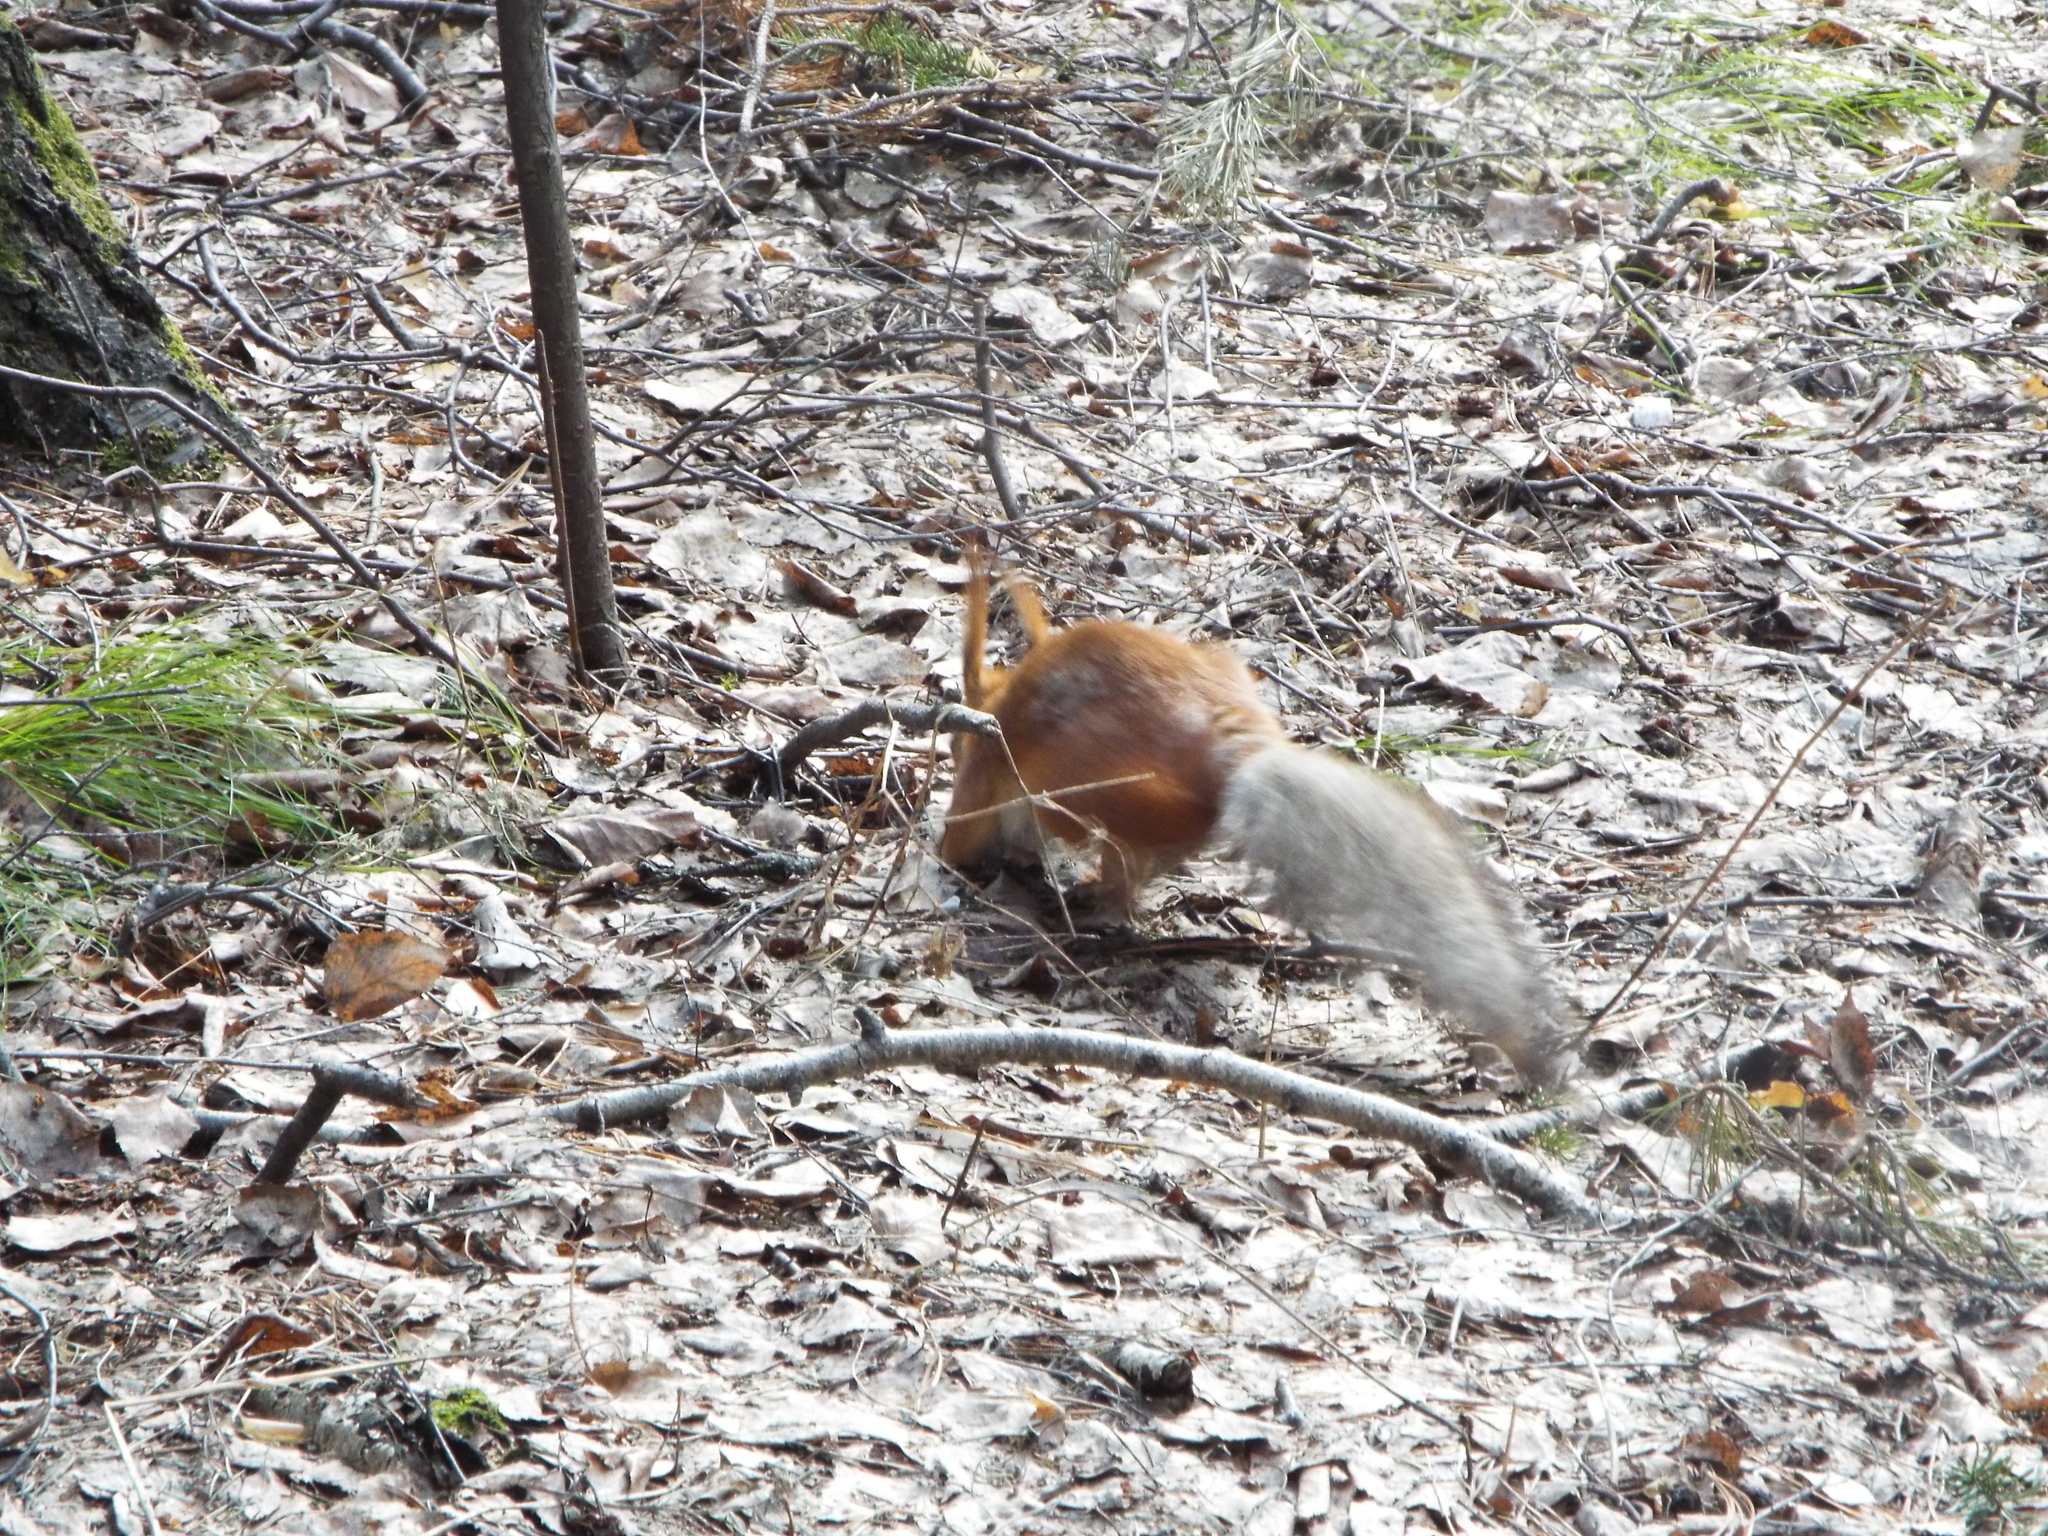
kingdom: Animalia
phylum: Chordata
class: Mammalia
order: Rodentia
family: Sciuridae
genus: Sciurus
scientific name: Sciurus vulgaris
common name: Eurasian red squirrel
